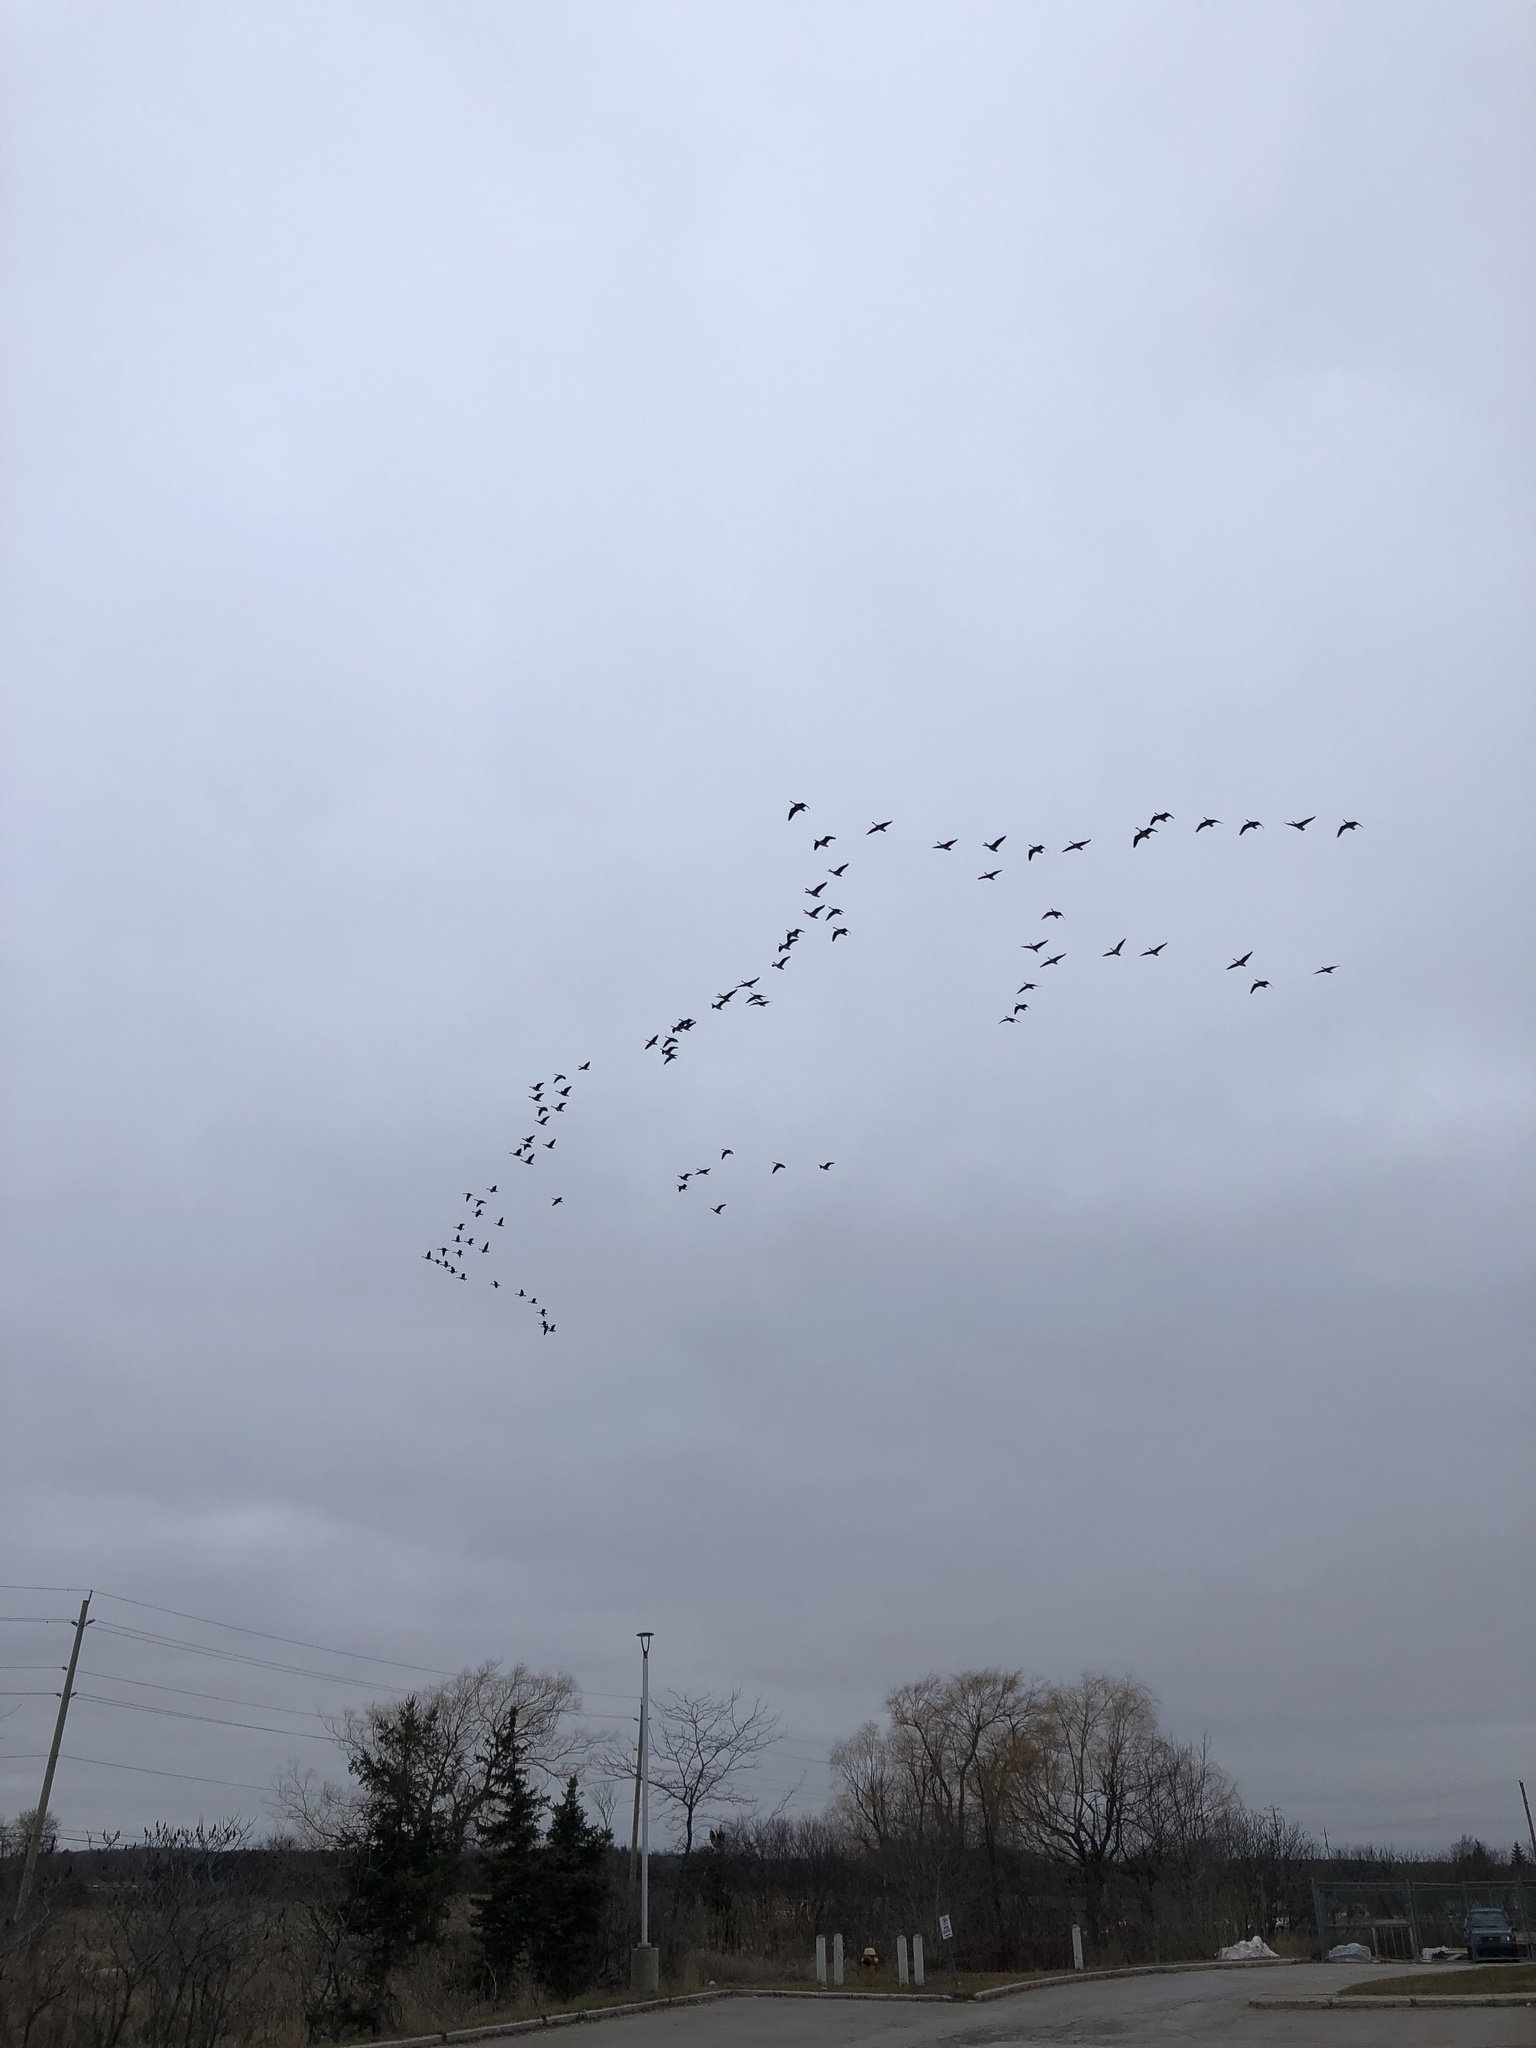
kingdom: Animalia
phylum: Chordata
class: Aves
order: Anseriformes
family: Anatidae
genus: Branta
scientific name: Branta canadensis
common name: Canada goose
